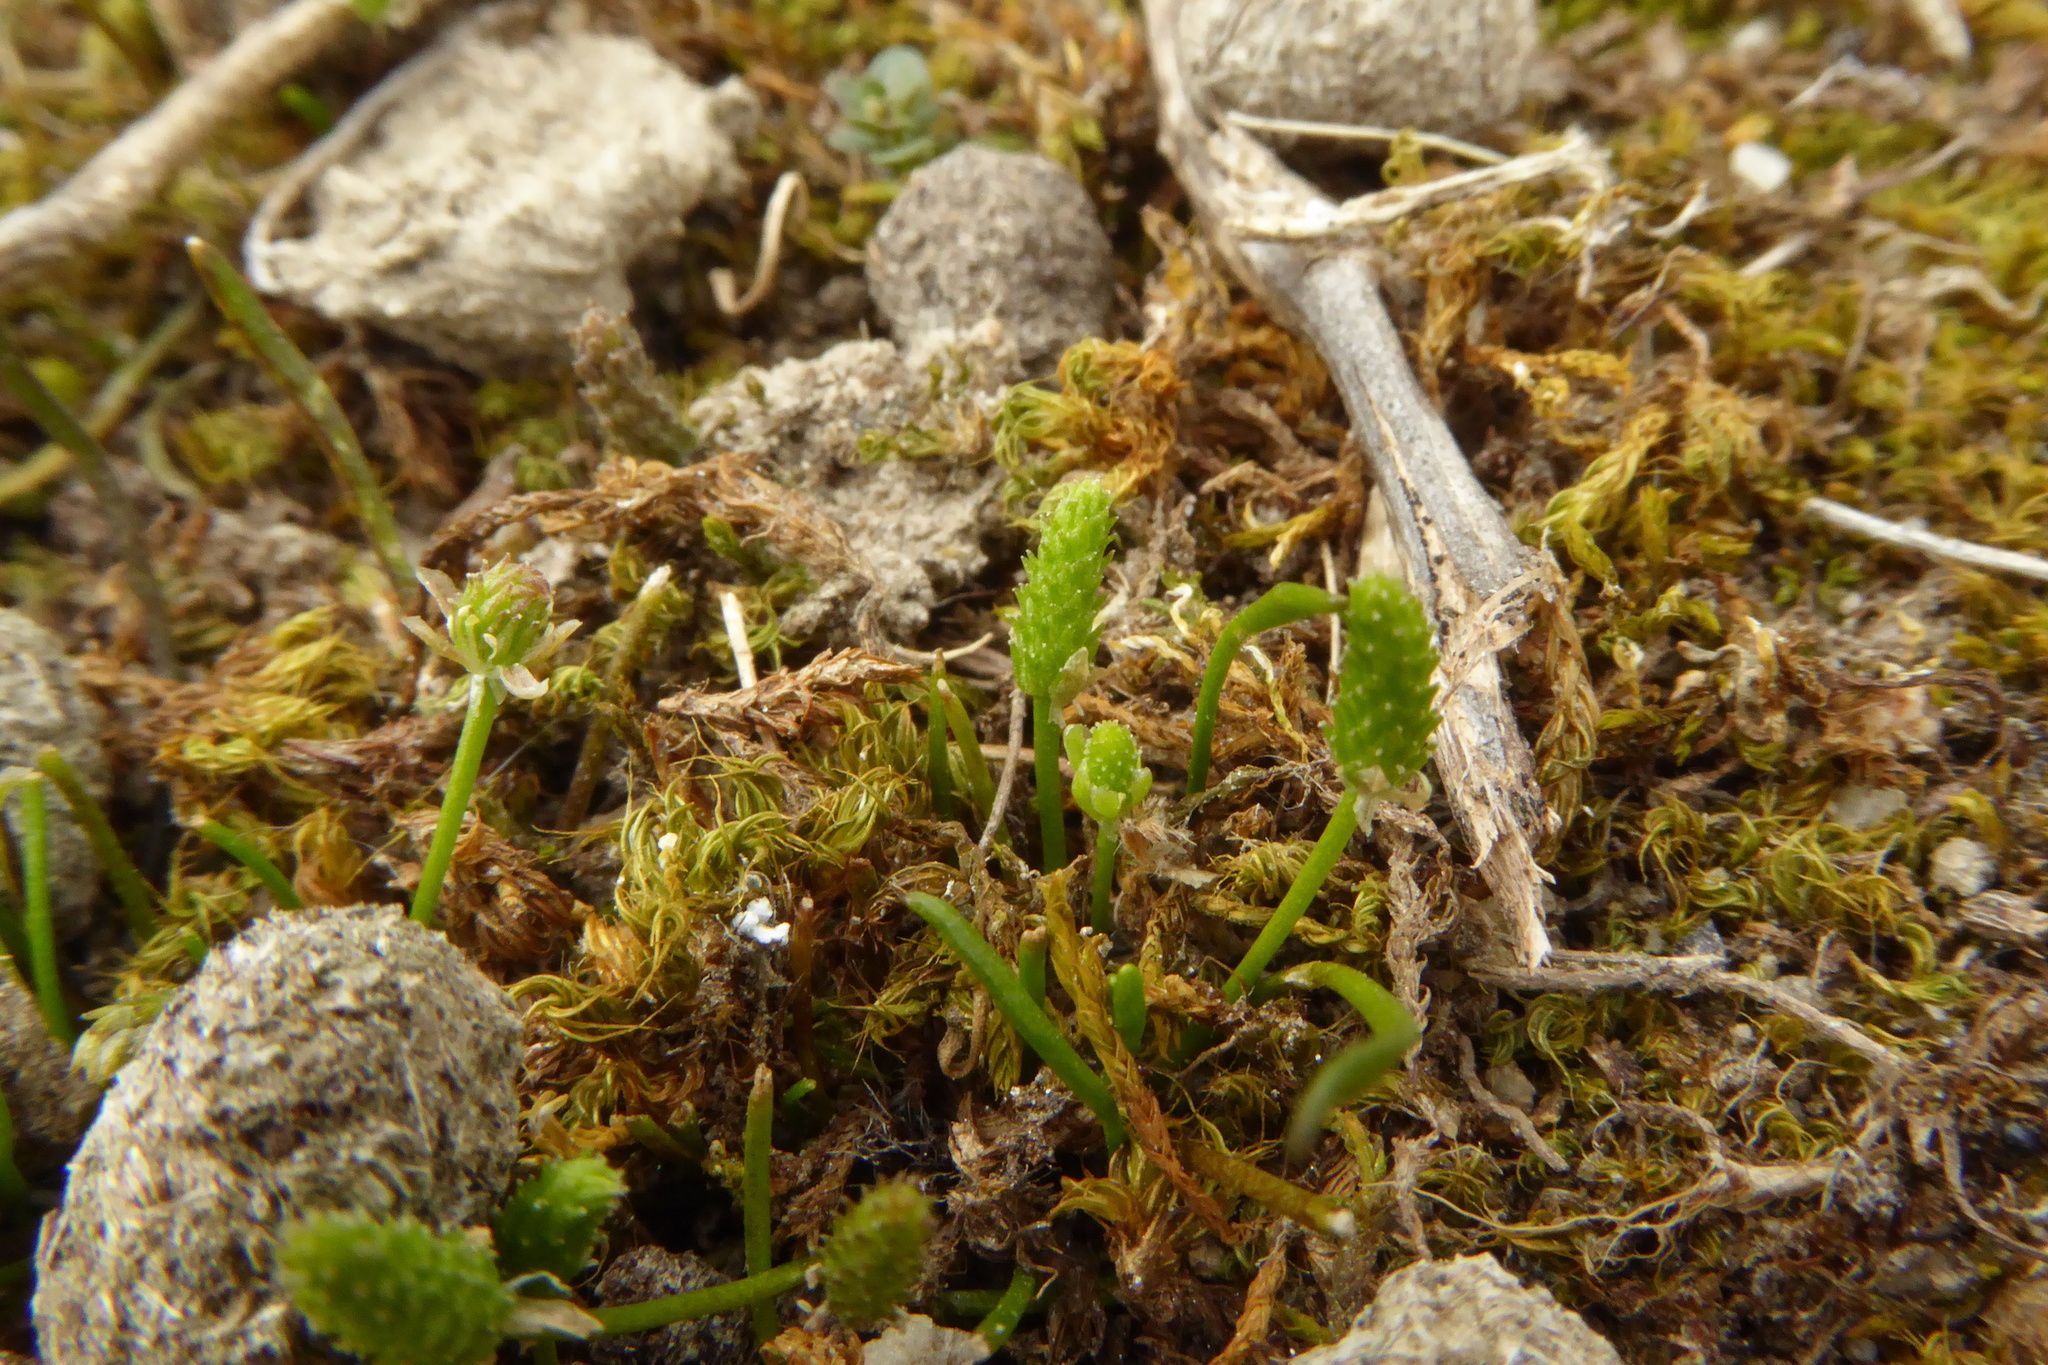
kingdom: Plantae
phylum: Tracheophyta
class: Magnoliopsida
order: Ranunculales
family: Ranunculaceae
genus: Myosurus
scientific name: Myosurus minimus
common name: Mousetail
